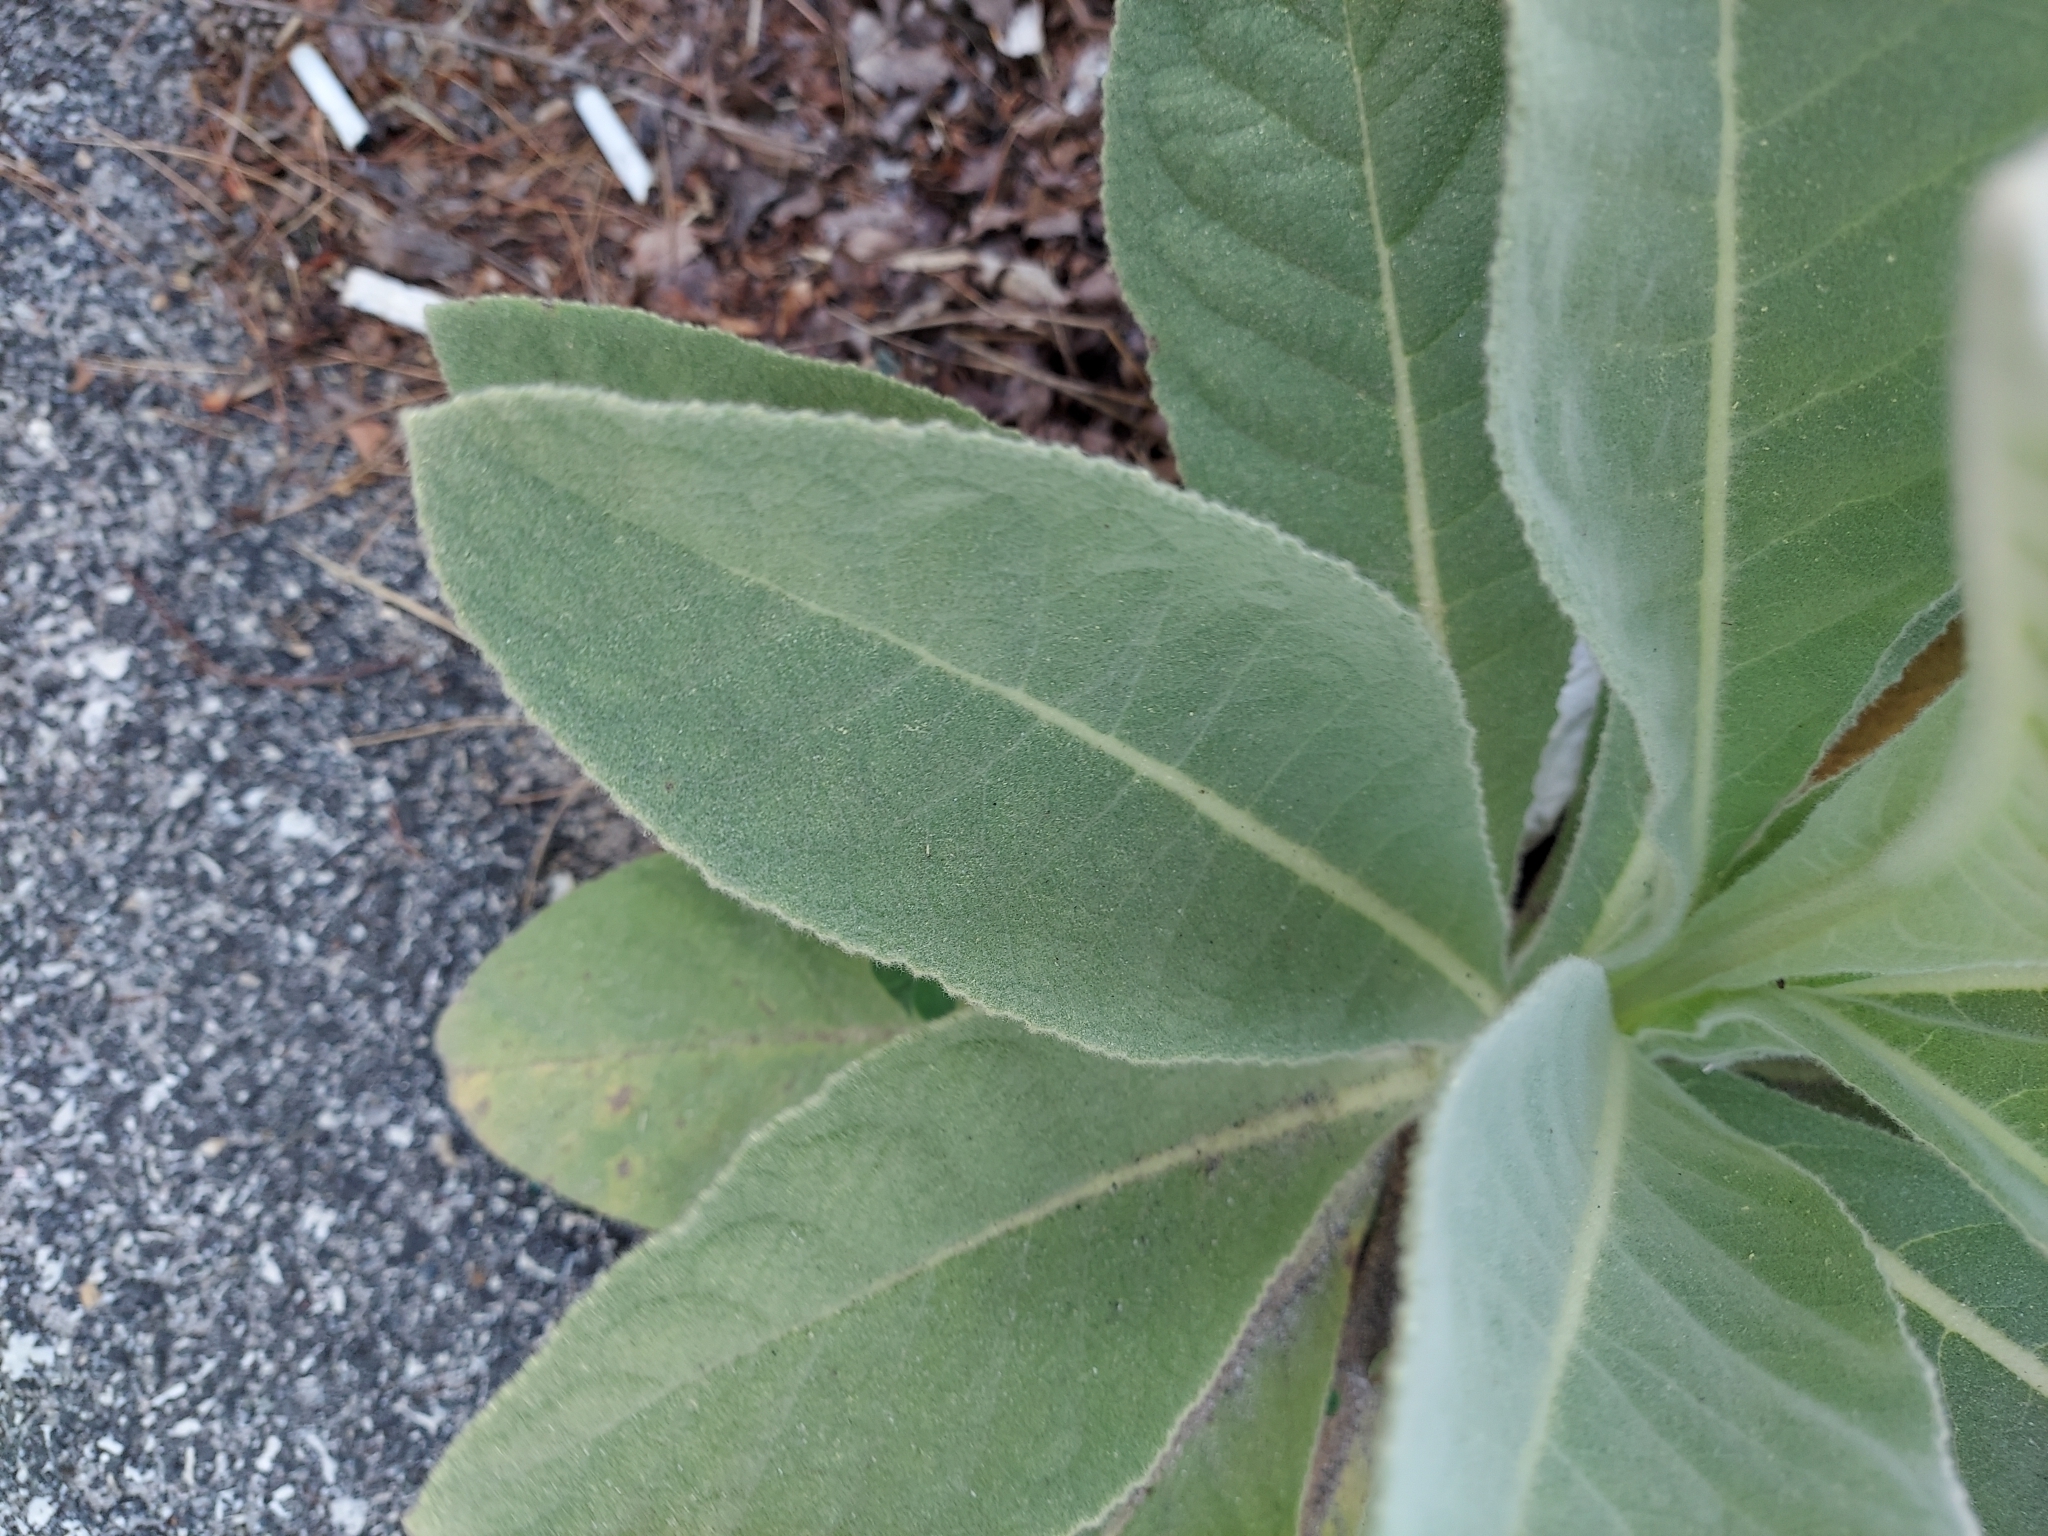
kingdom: Plantae
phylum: Tracheophyta
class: Magnoliopsida
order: Lamiales
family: Scrophulariaceae
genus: Verbascum
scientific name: Verbascum thapsus
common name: Common mullein
